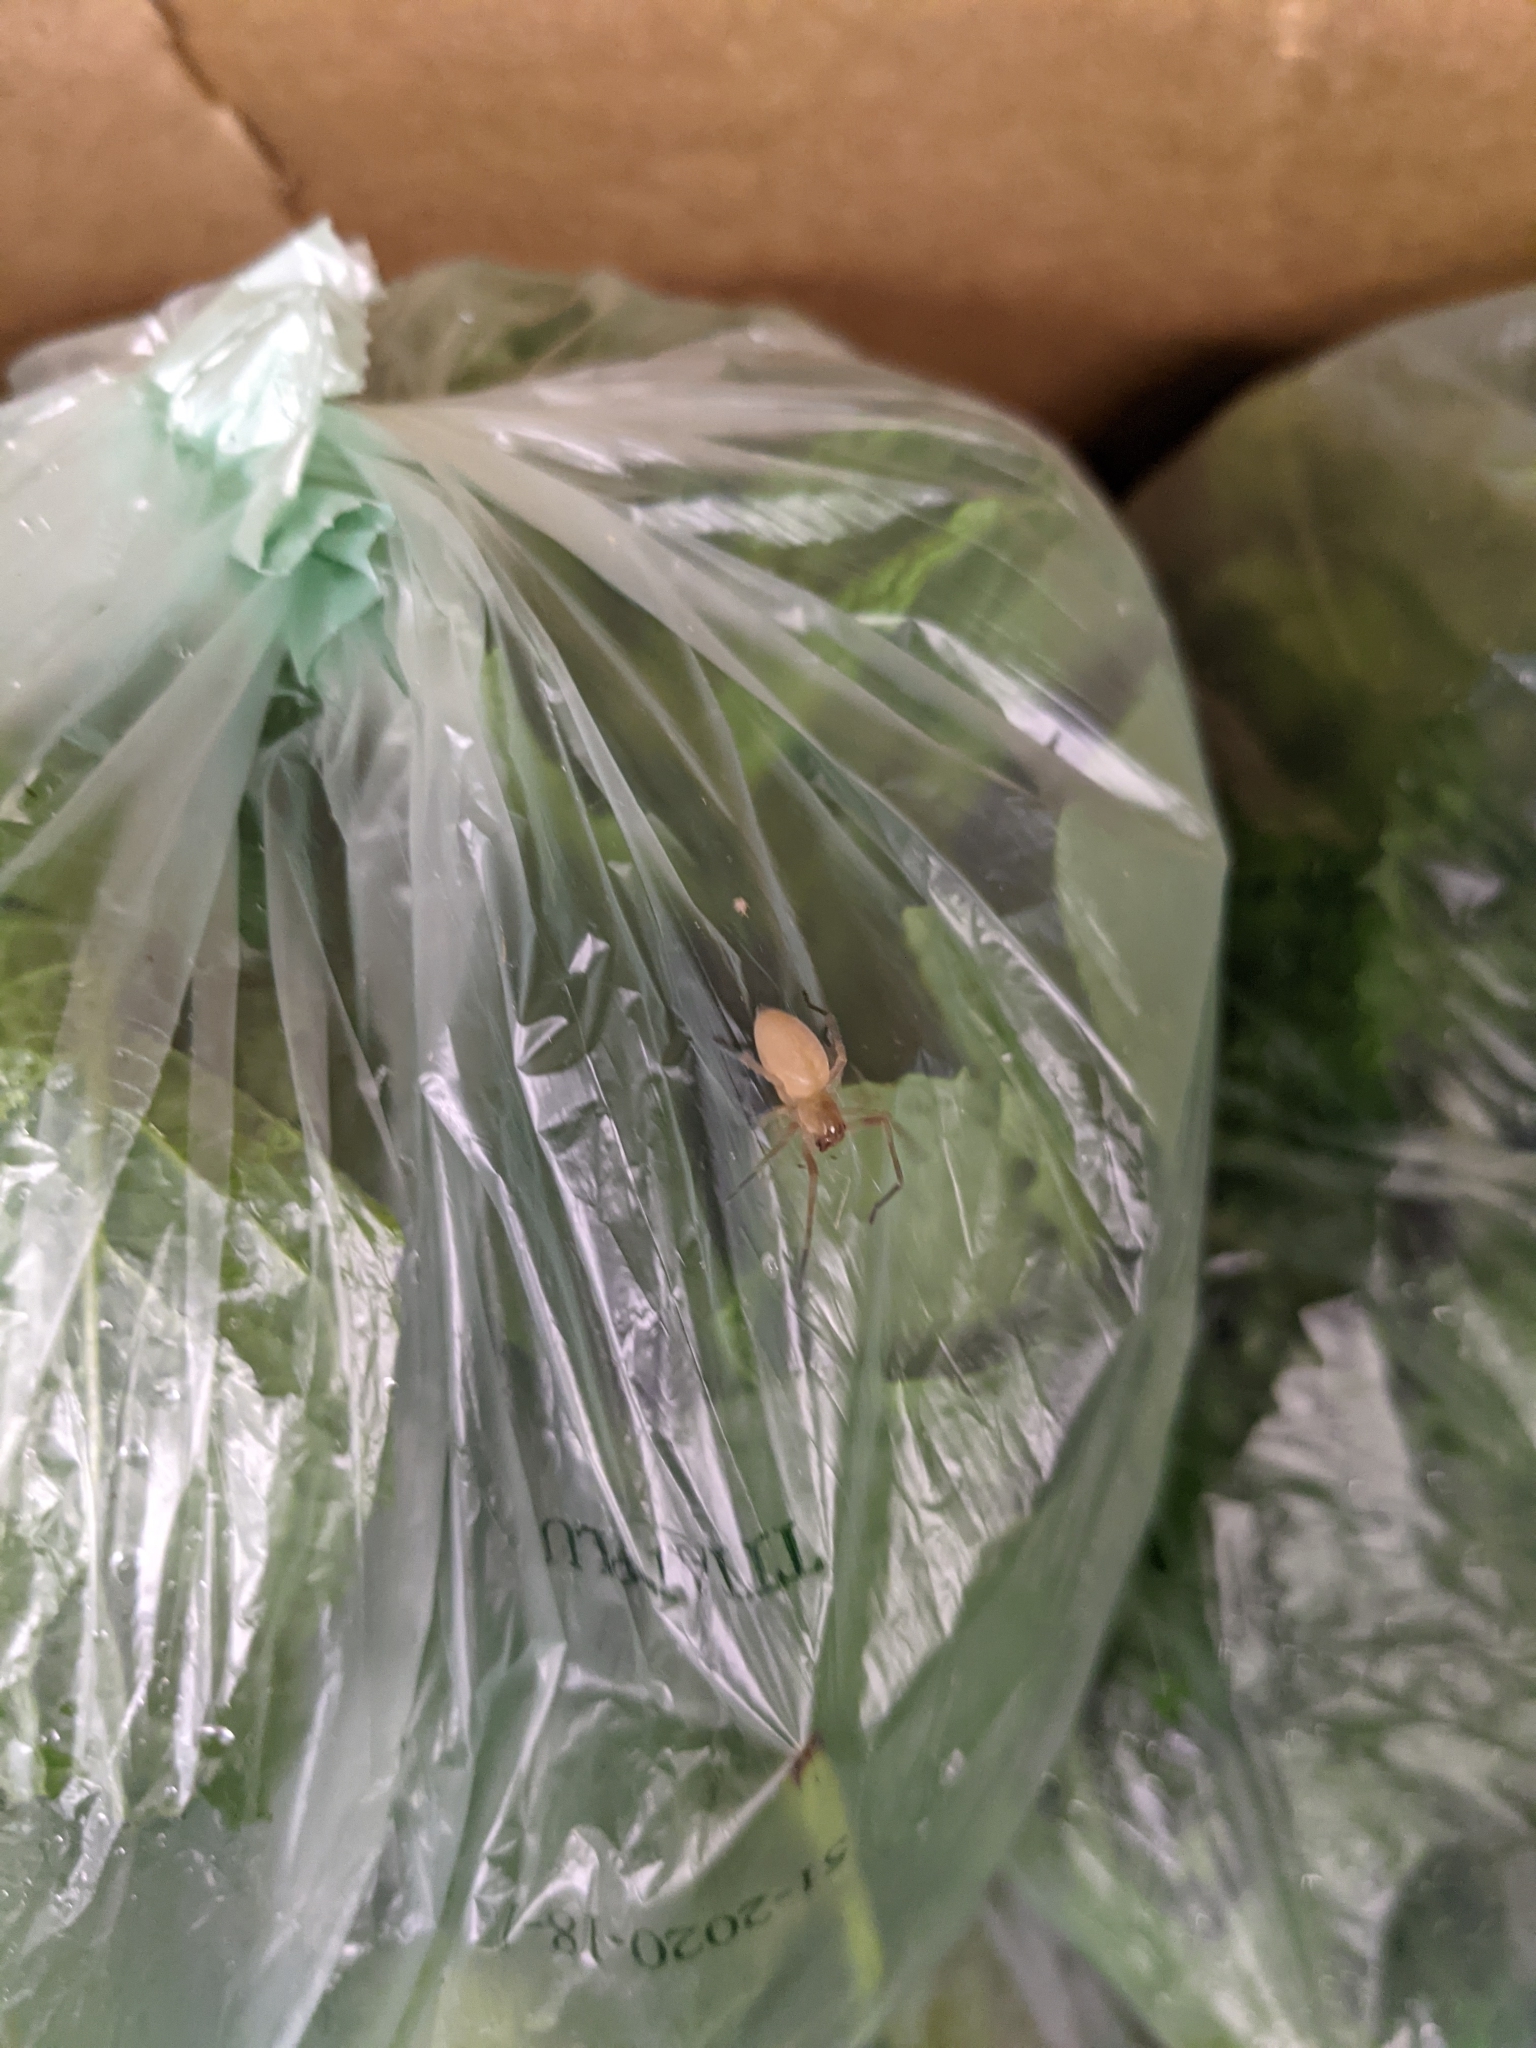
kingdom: Animalia
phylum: Arthropoda
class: Arachnida
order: Araneae
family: Cheiracanthiidae
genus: Cheiracanthium
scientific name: Cheiracanthium mildei
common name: Northern yellow sac spider
